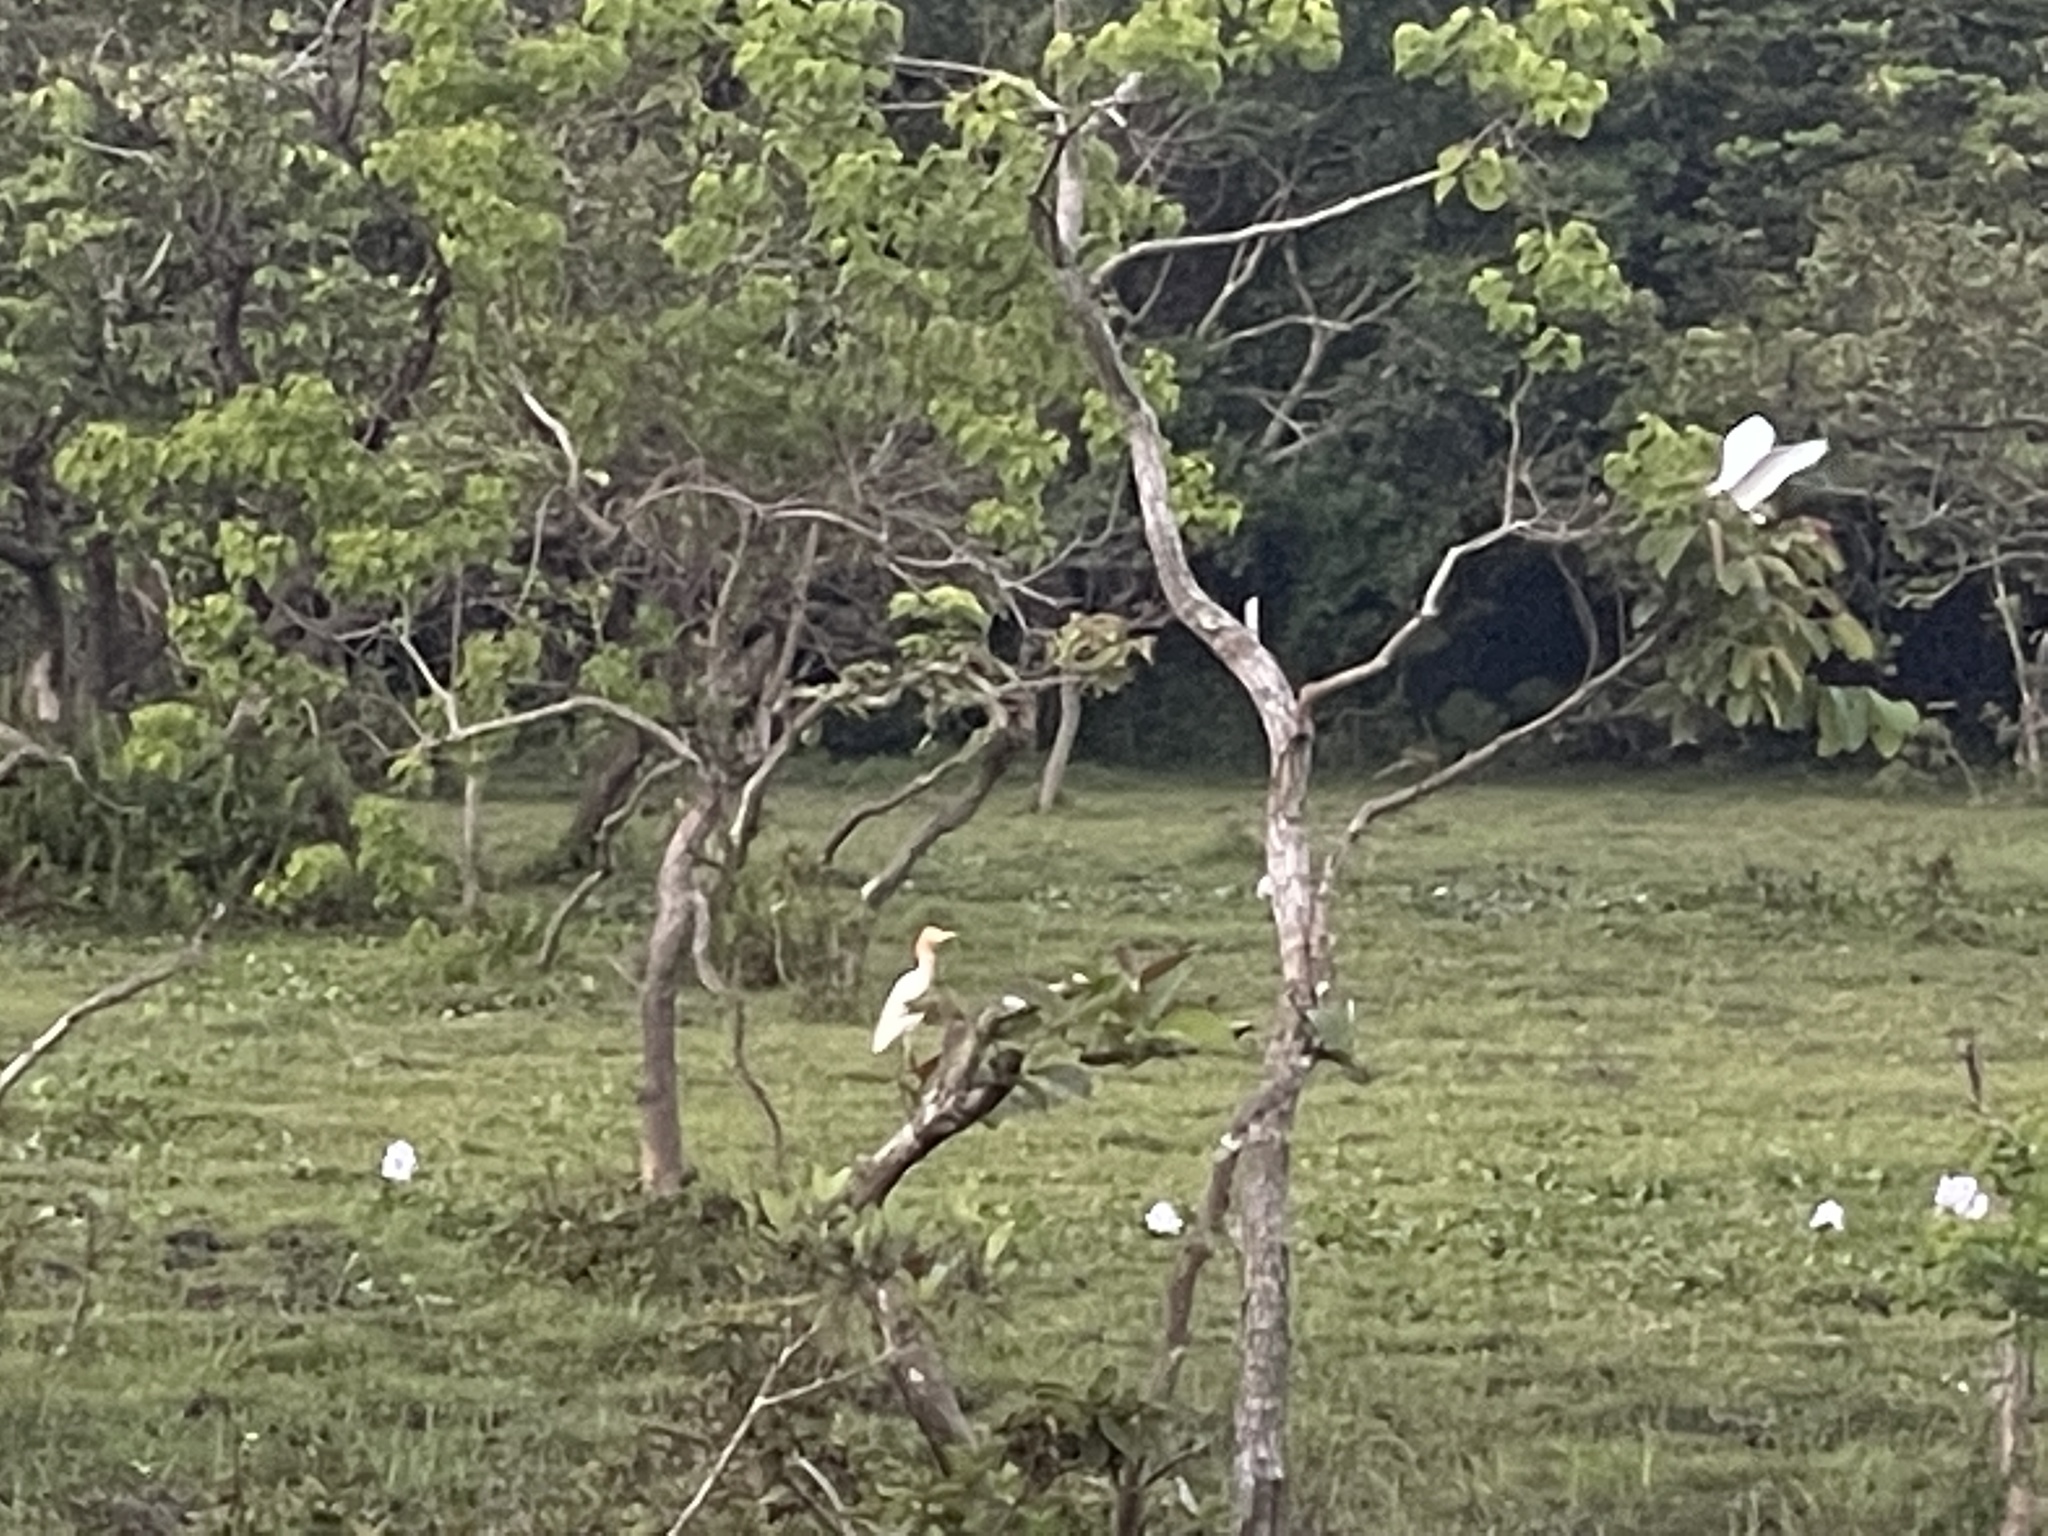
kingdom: Animalia
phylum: Chordata
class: Aves
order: Pelecaniformes
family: Ardeidae
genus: Bubulcus
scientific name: Bubulcus coromandus
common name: Eastern cattle egret
